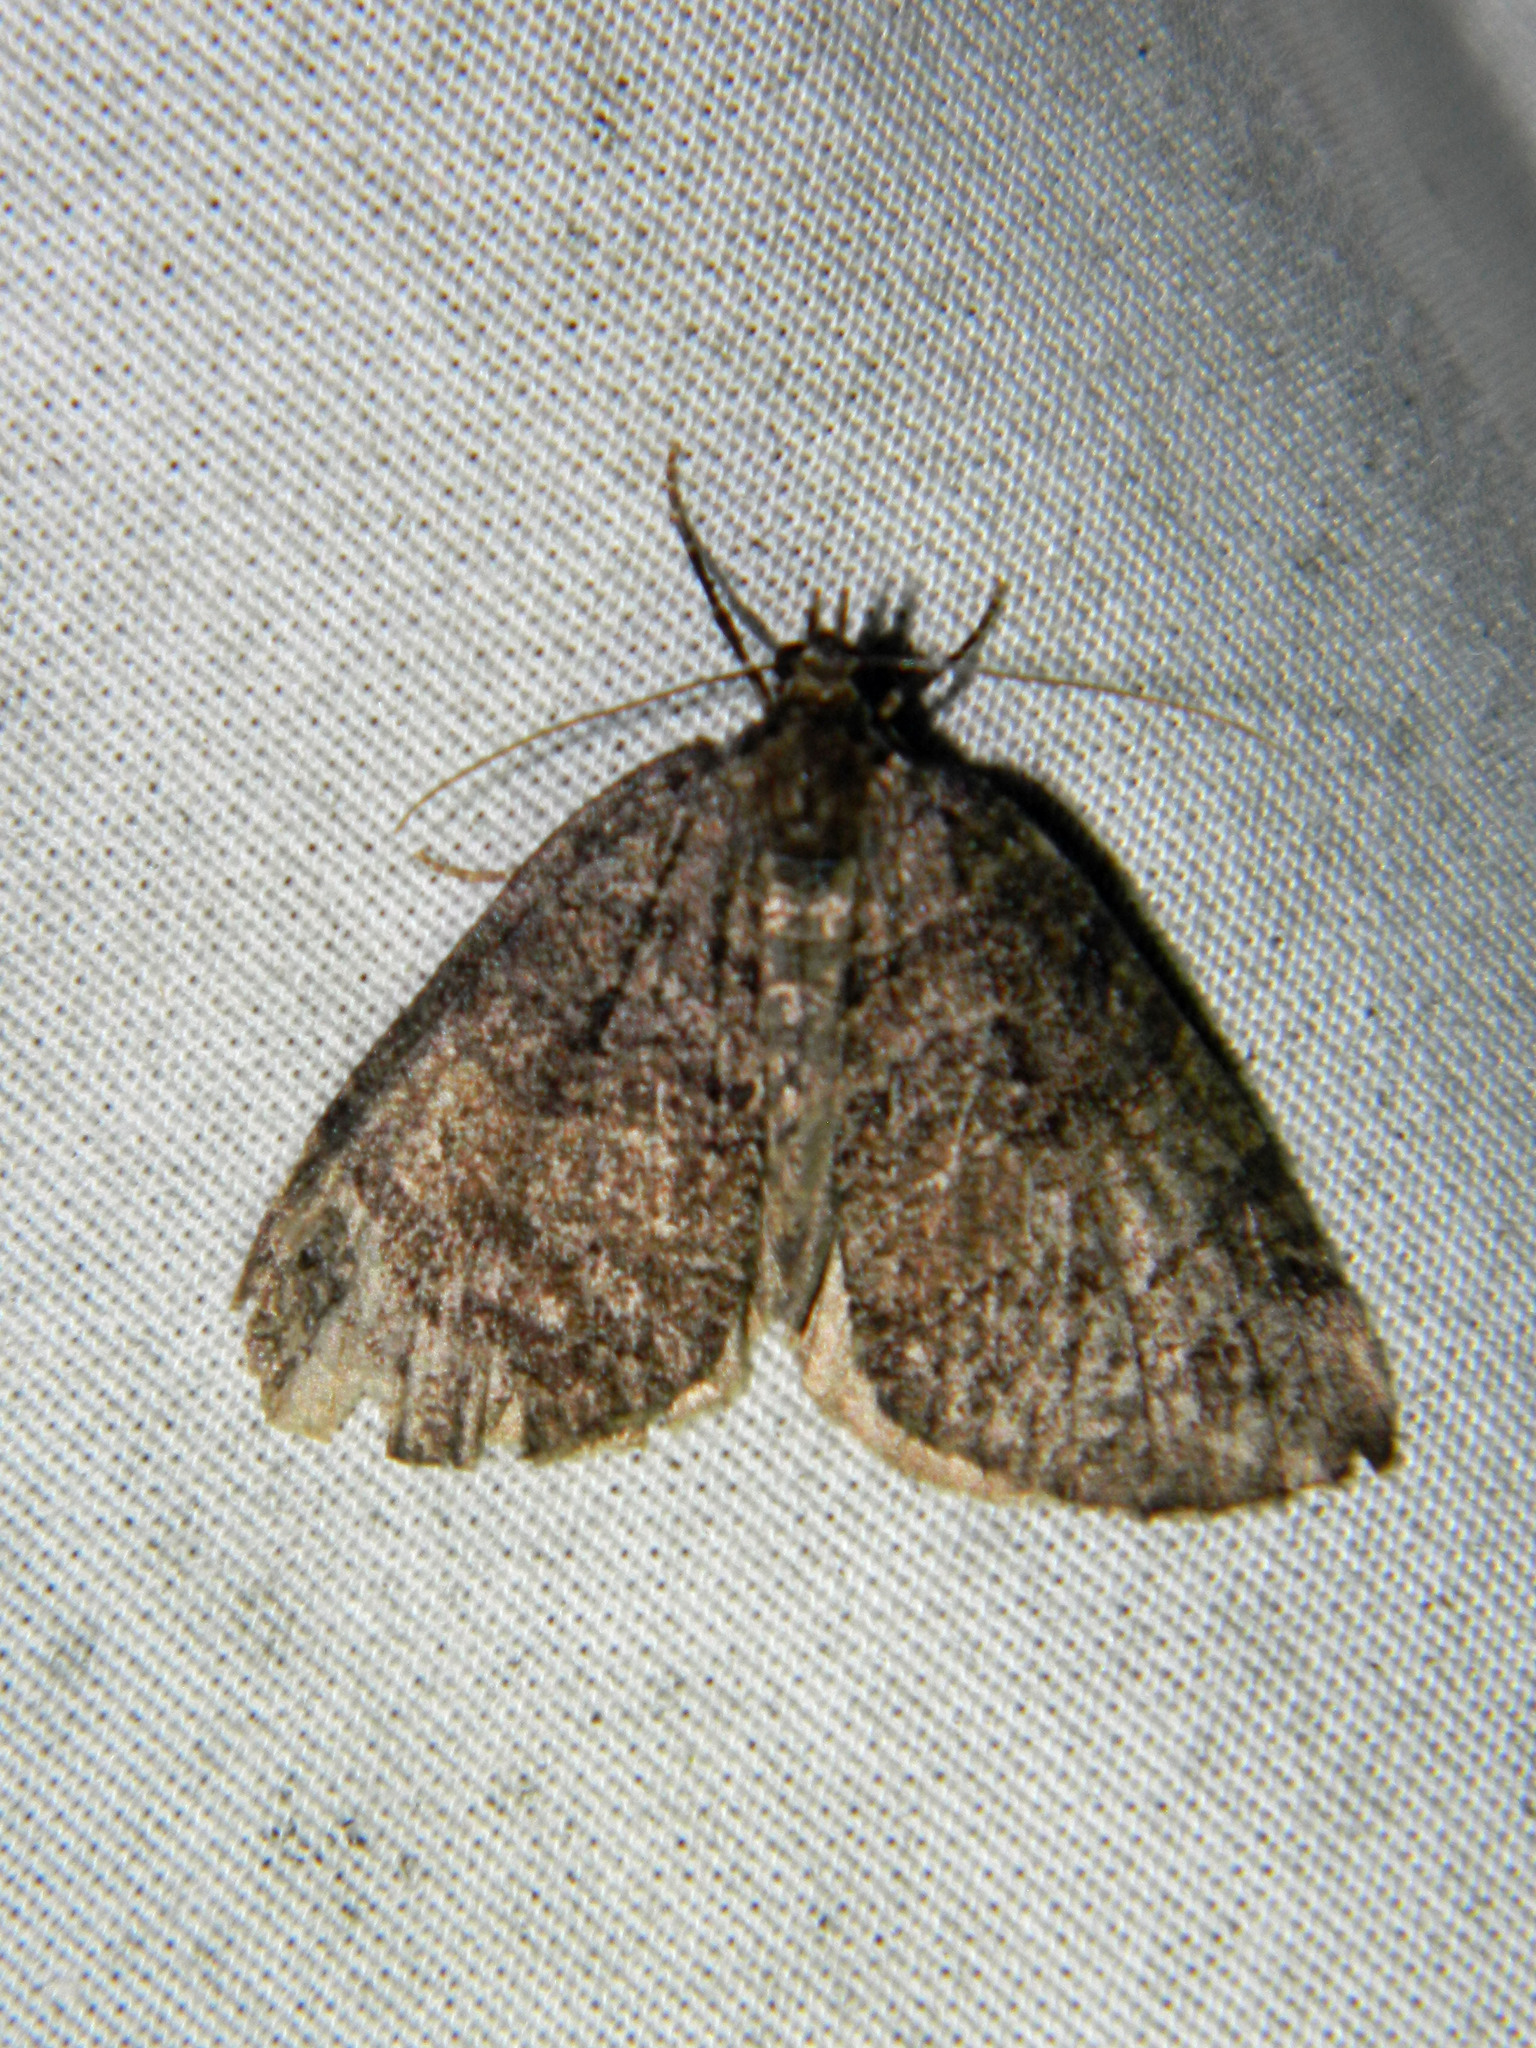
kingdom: Animalia
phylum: Arthropoda
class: Insecta
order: Lepidoptera
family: Geometridae
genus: Hydriomena
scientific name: Hydriomena furcata
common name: July highflyer
